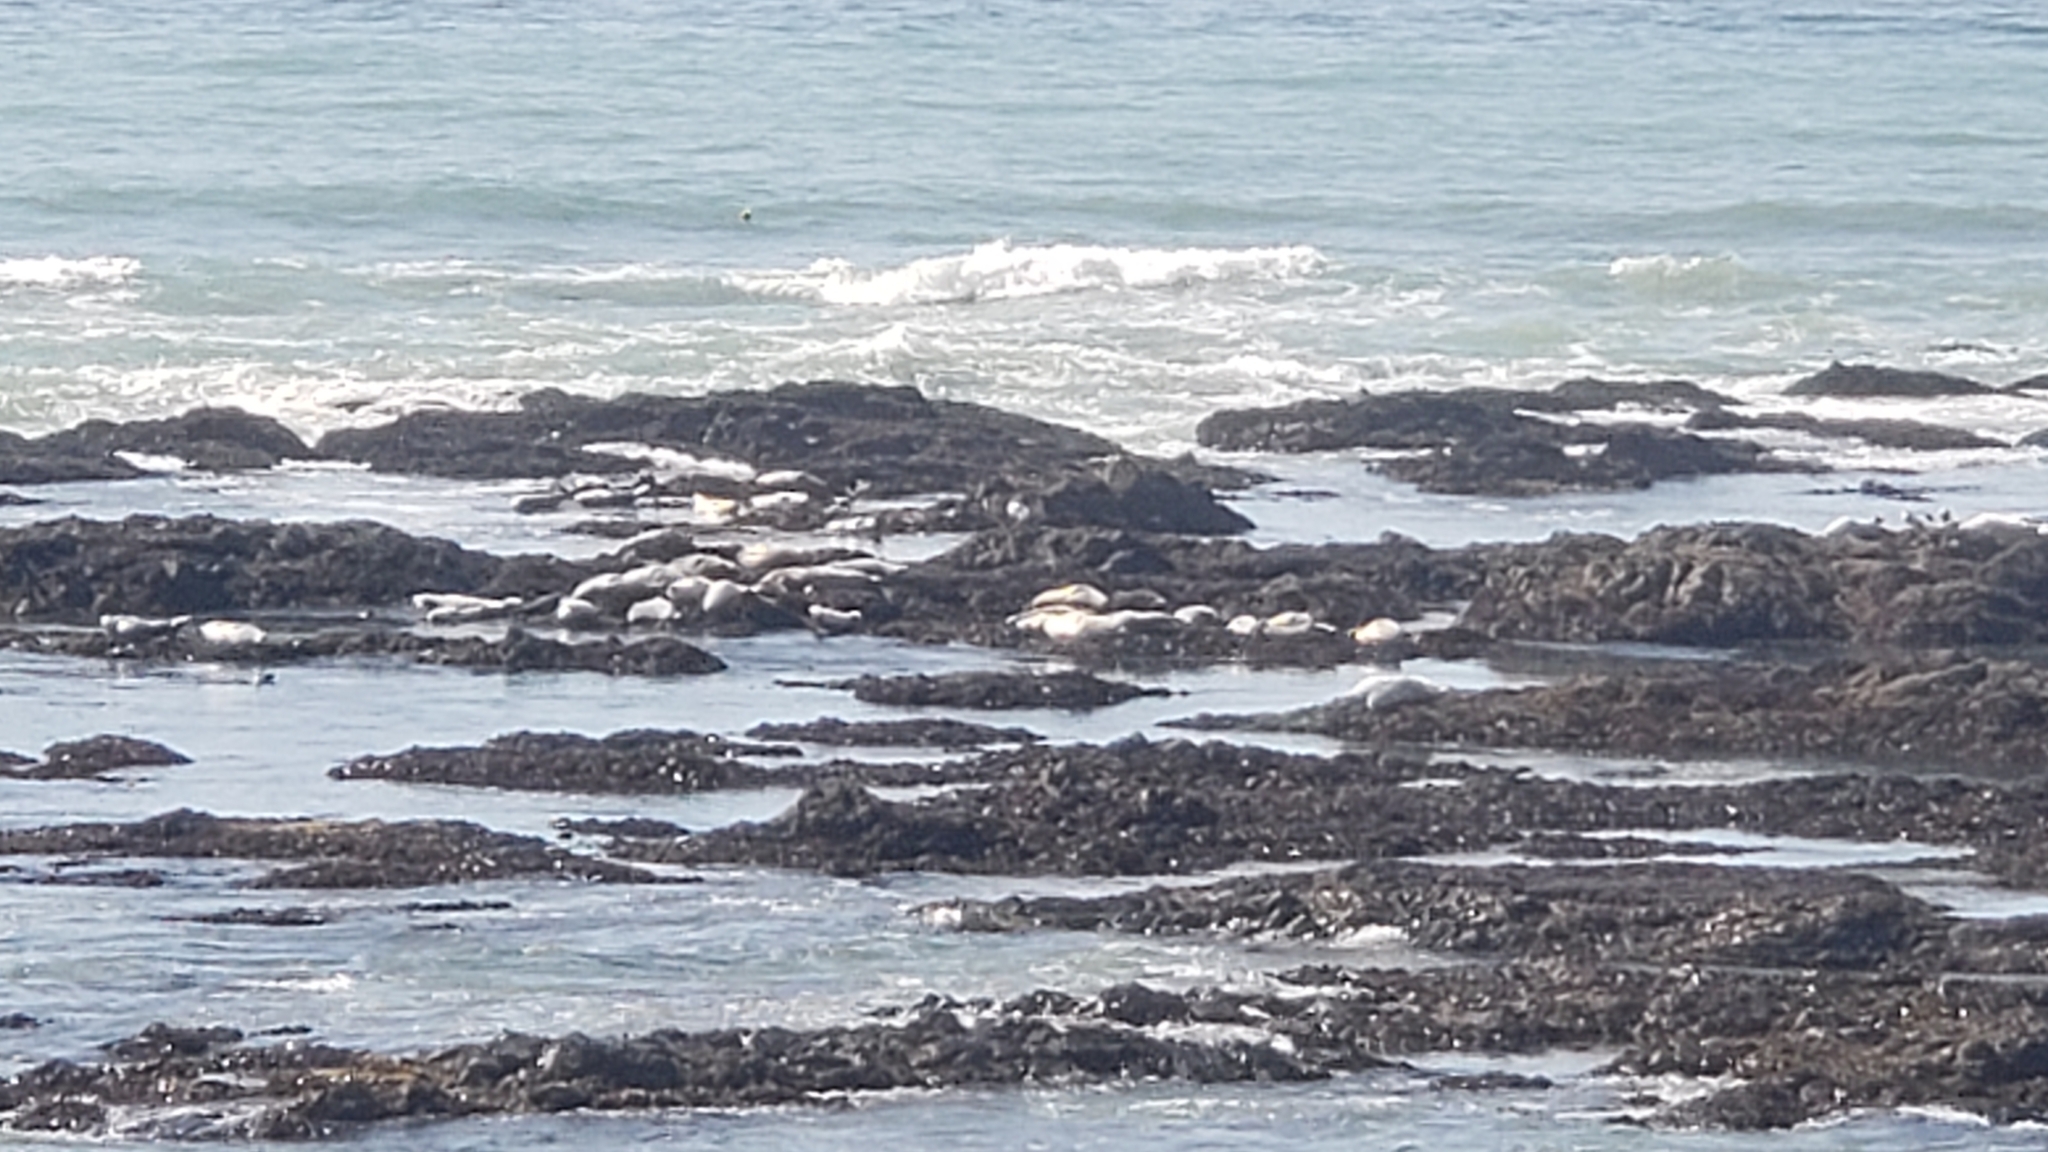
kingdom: Animalia
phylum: Chordata
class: Mammalia
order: Carnivora
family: Phocidae
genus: Phoca
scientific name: Phoca vitulina
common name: Harbor seal
